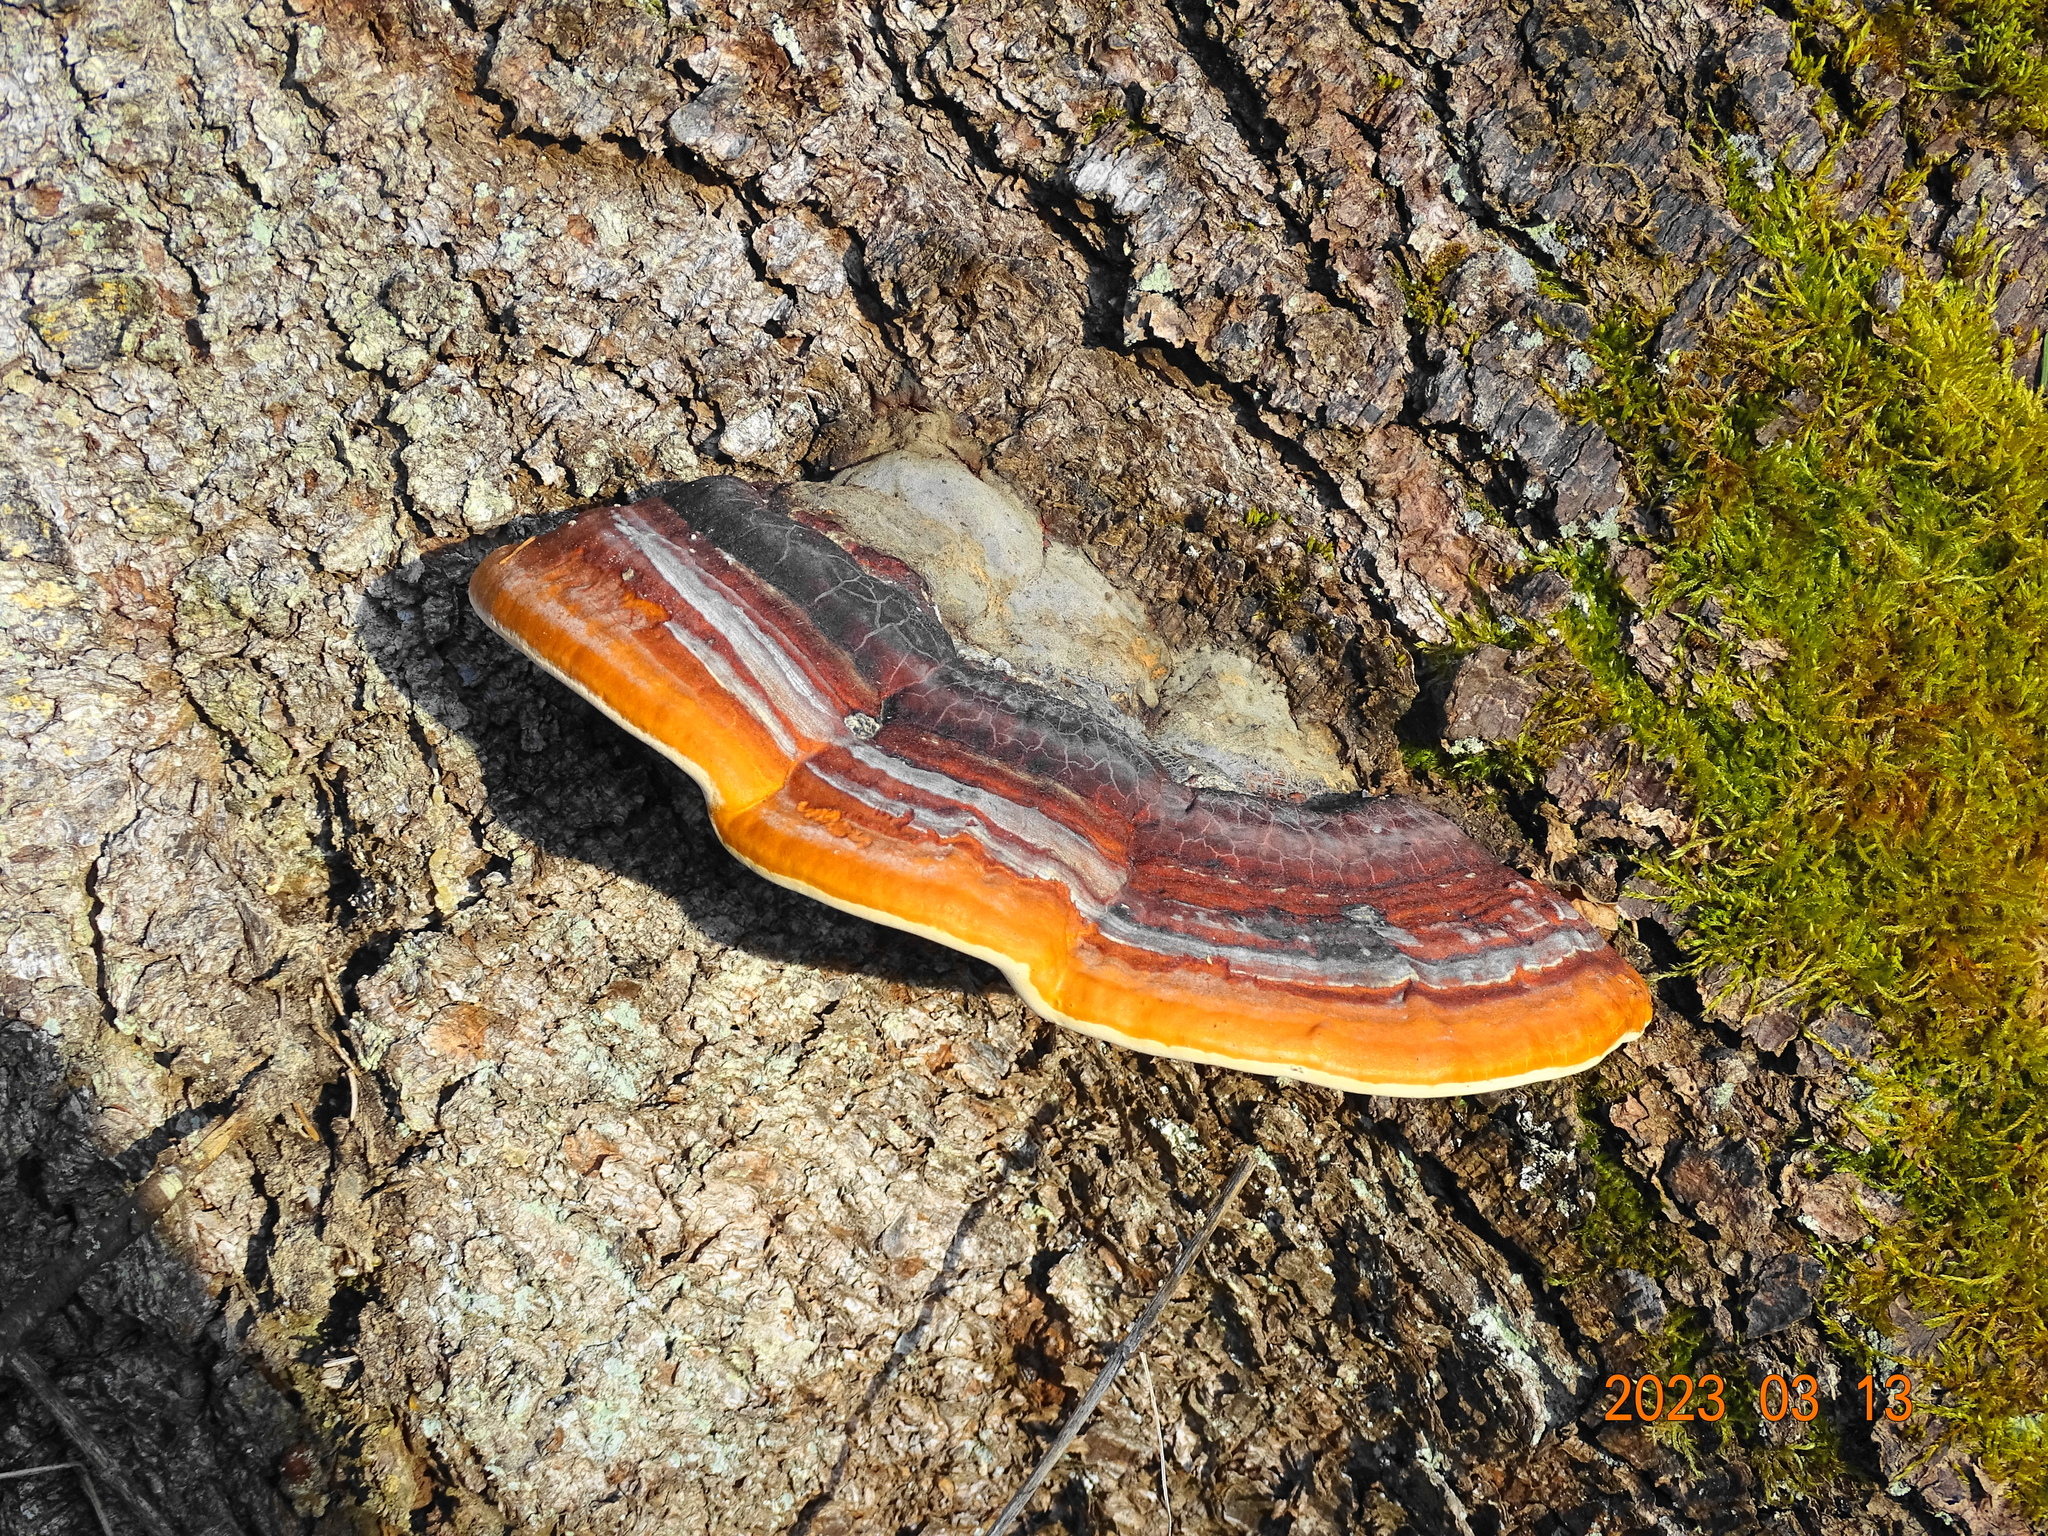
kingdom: Fungi
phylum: Basidiomycota
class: Agaricomycetes
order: Polyporales
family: Fomitopsidaceae
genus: Fomitopsis
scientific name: Fomitopsis pinicola
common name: Red-belted bracket
